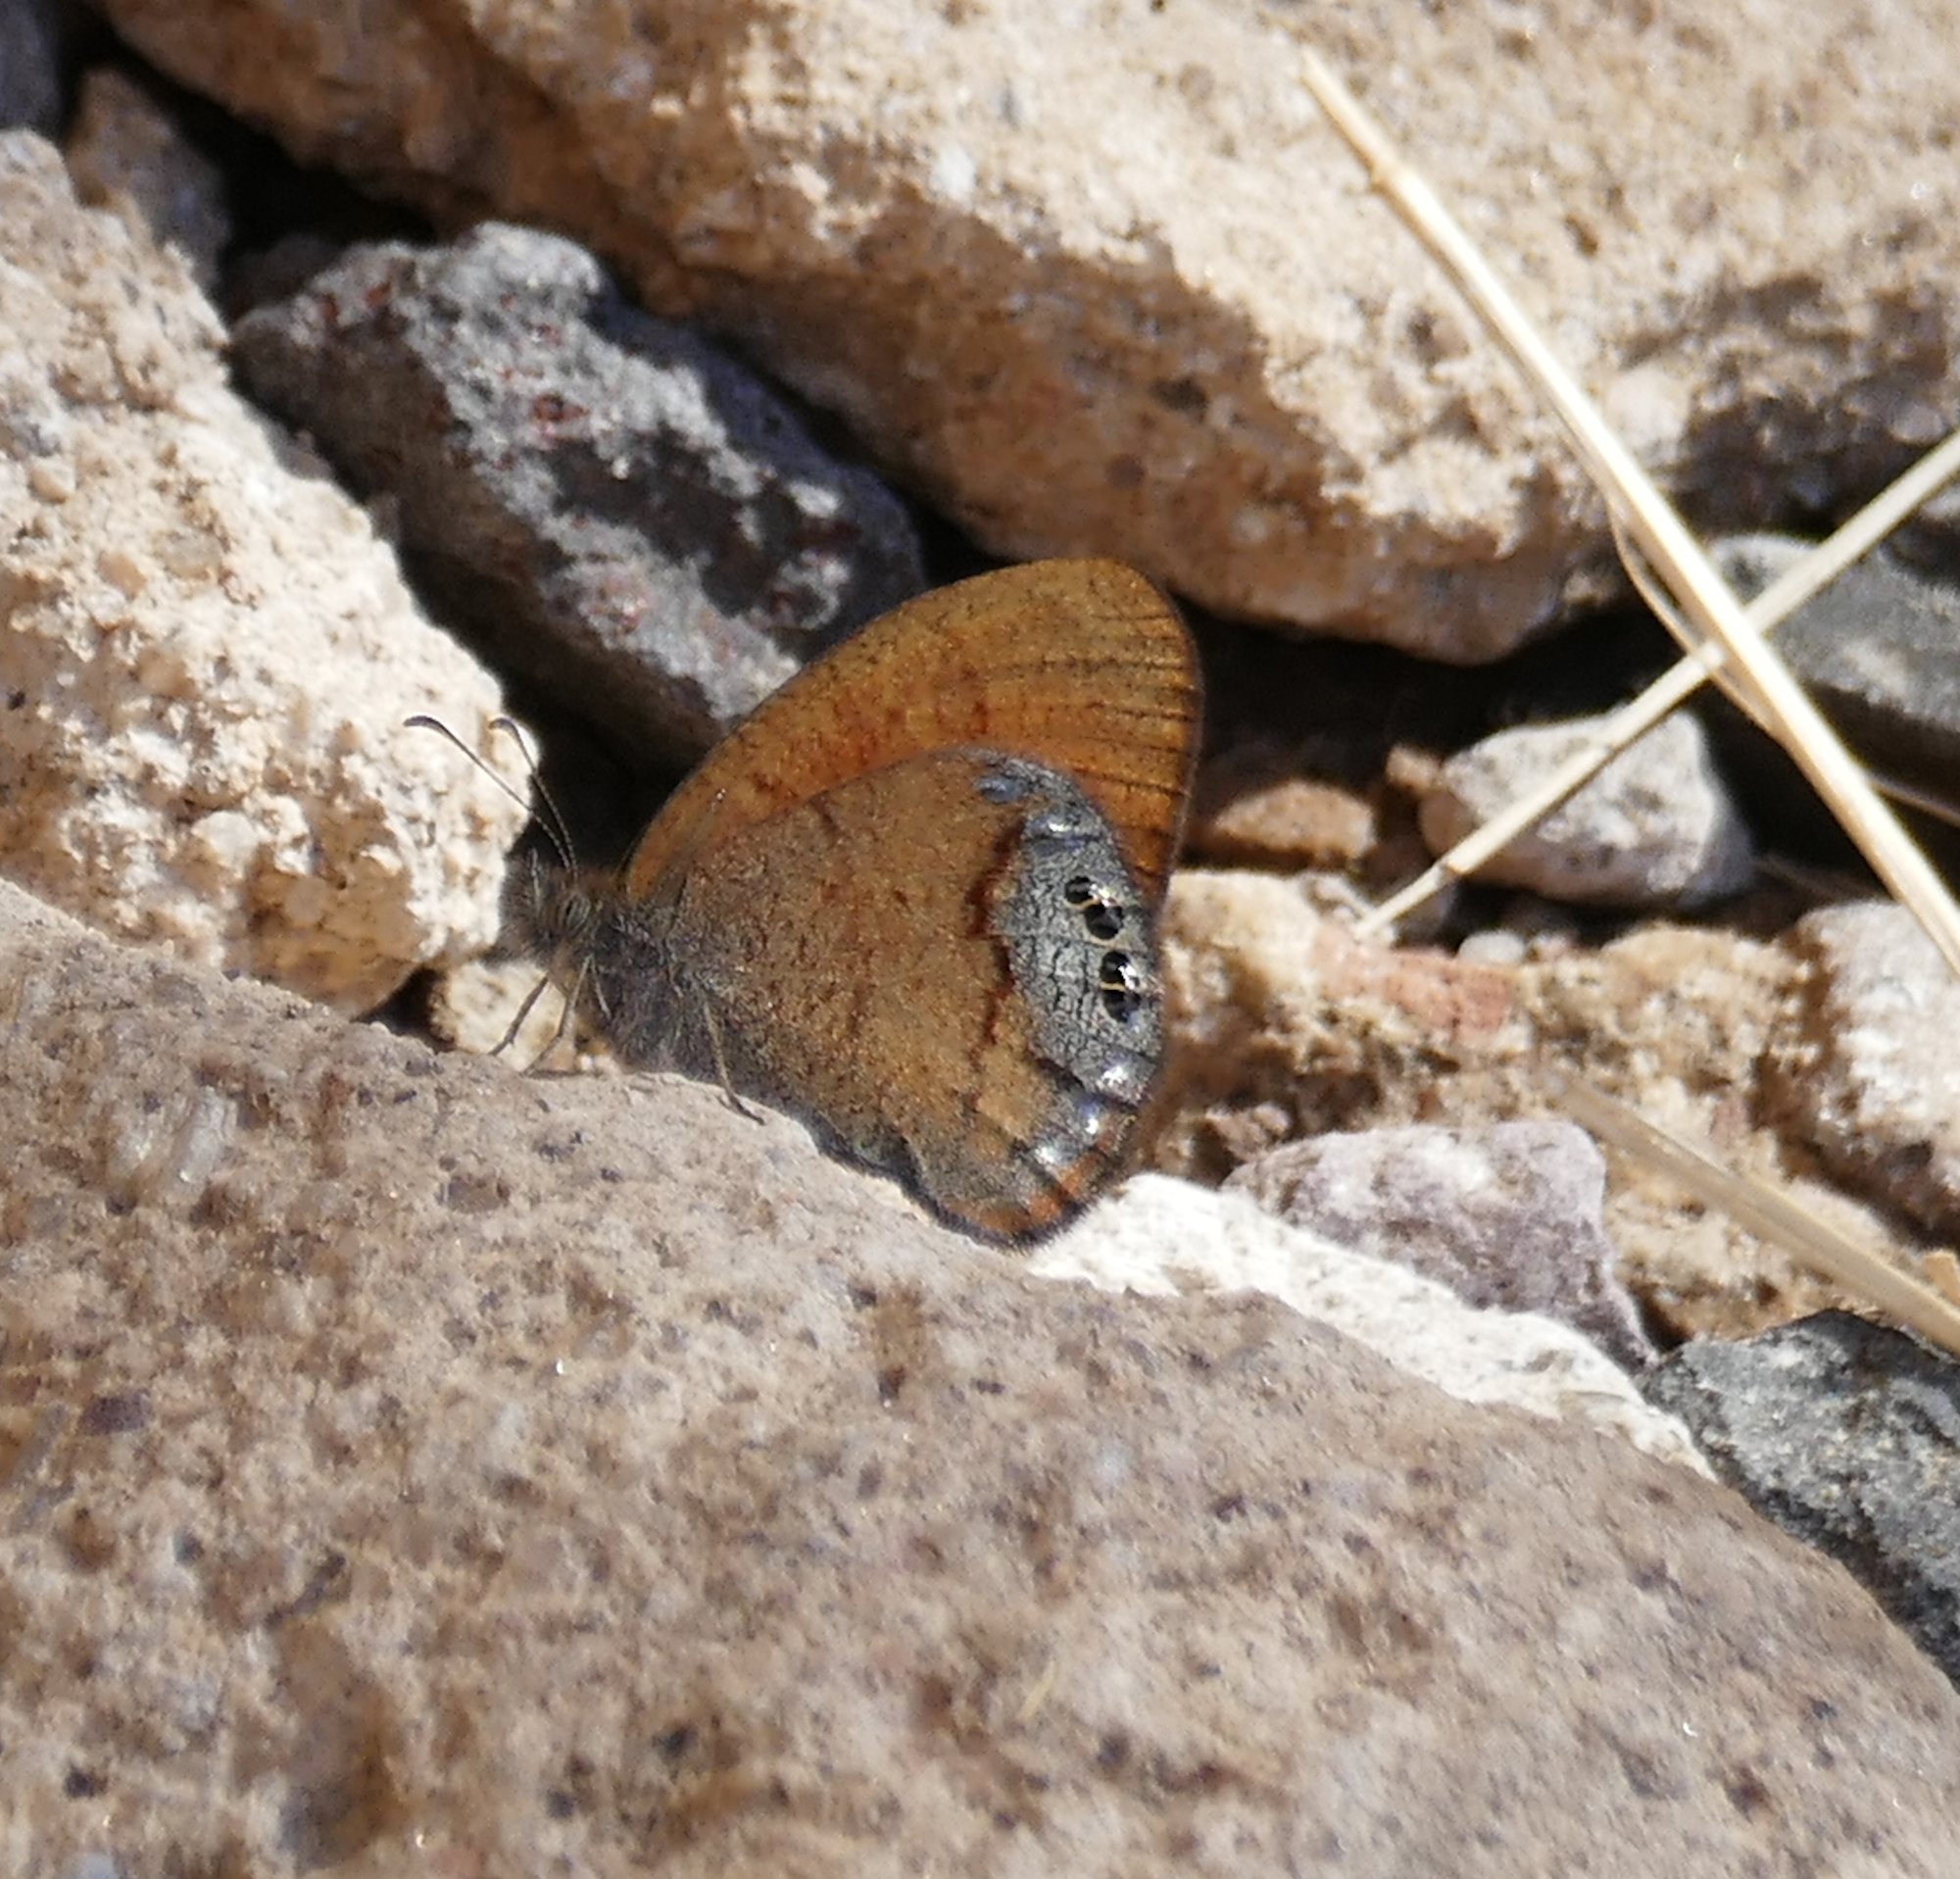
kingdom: Animalia
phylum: Arthropoda
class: Insecta
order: Lepidoptera
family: Nymphalidae
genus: Euptychia
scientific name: Euptychia Cyllopsis pertepida
